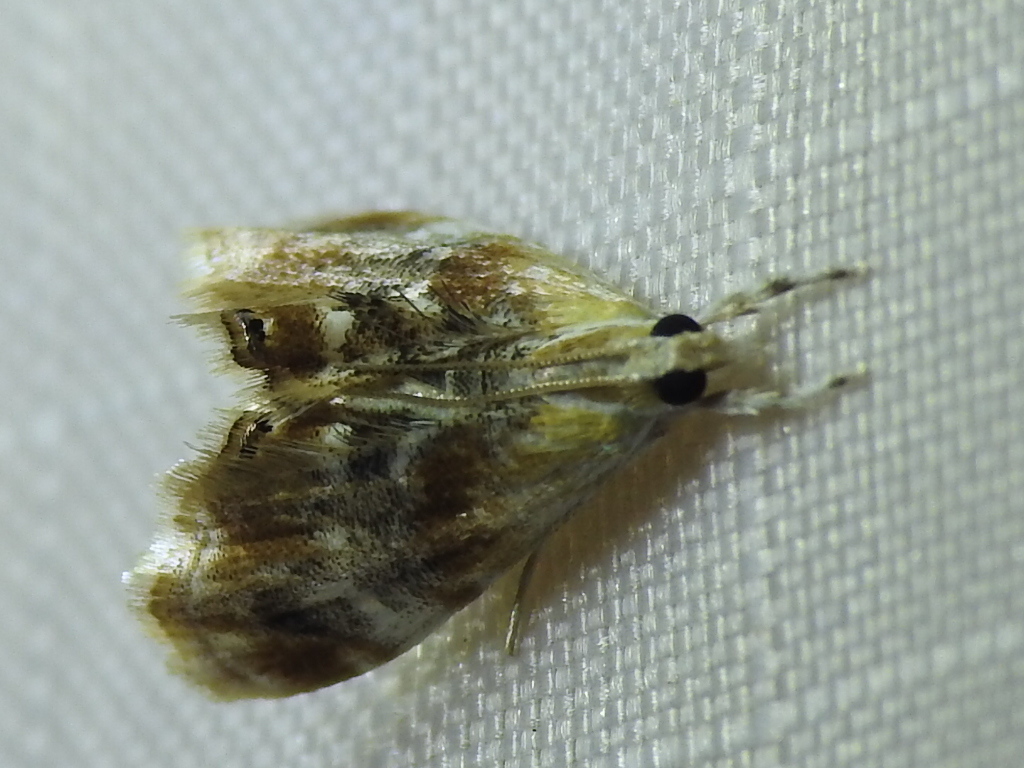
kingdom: Animalia
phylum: Arthropoda
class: Insecta
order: Lepidoptera
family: Crambidae
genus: Dicymolomia
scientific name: Dicymolomia julianalis
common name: Julia's dicymolomia moth
